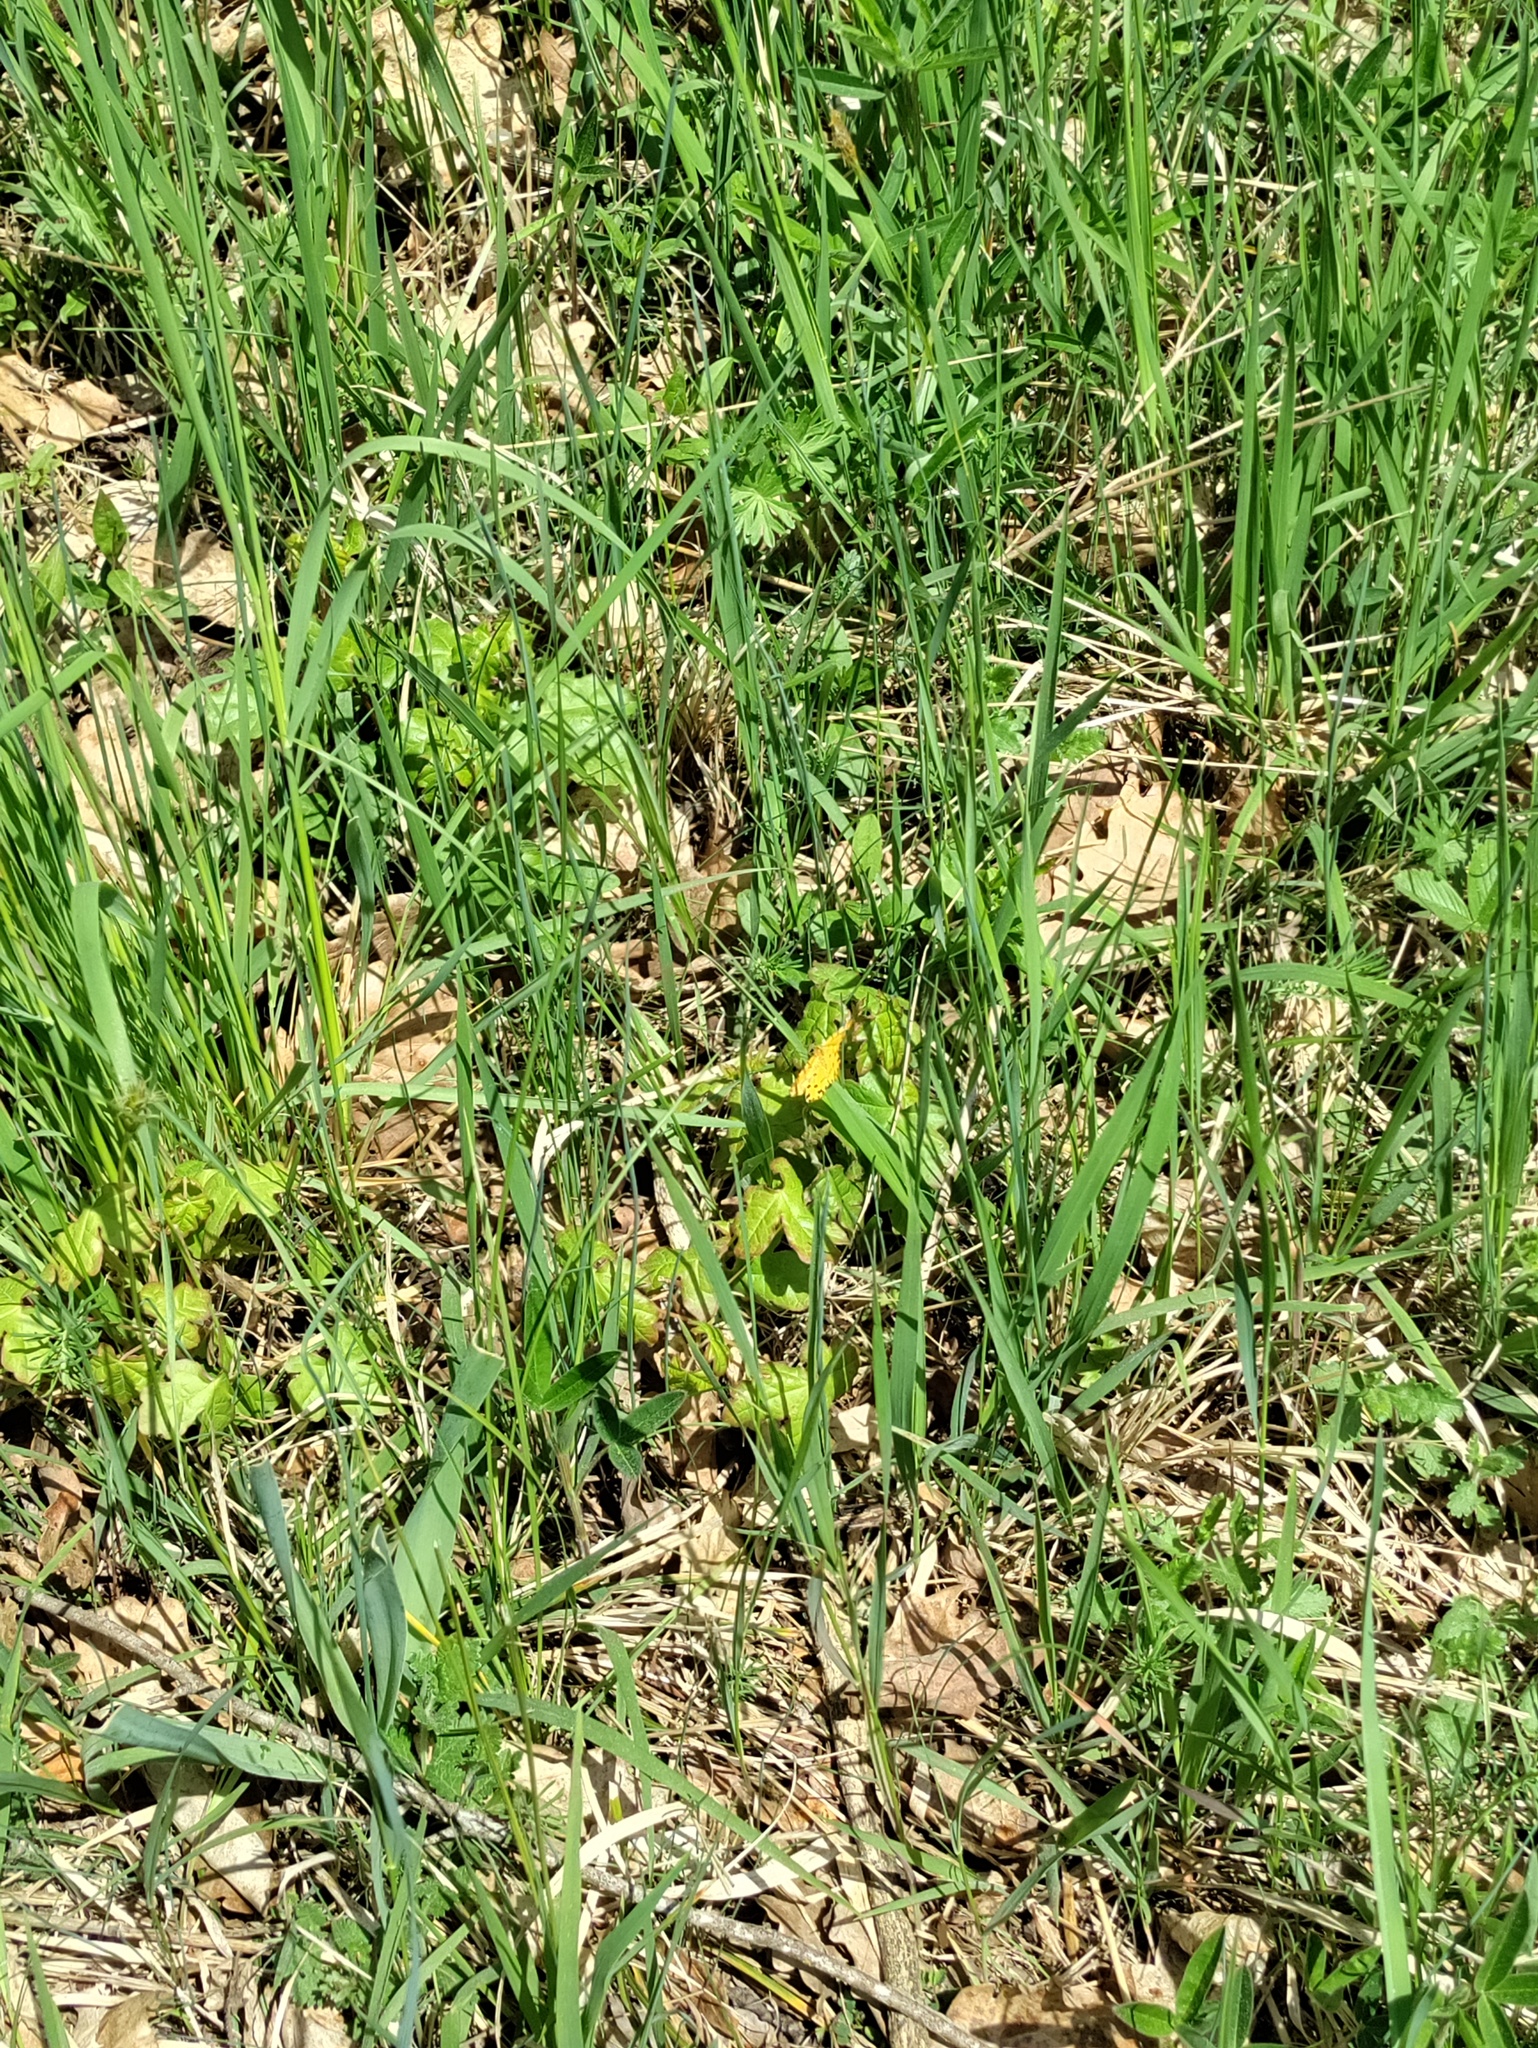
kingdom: Animalia
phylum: Arthropoda
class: Insecta
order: Lepidoptera
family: Geometridae
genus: Pseudopanthera
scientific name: Pseudopanthera macularia
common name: Speckled yellow
